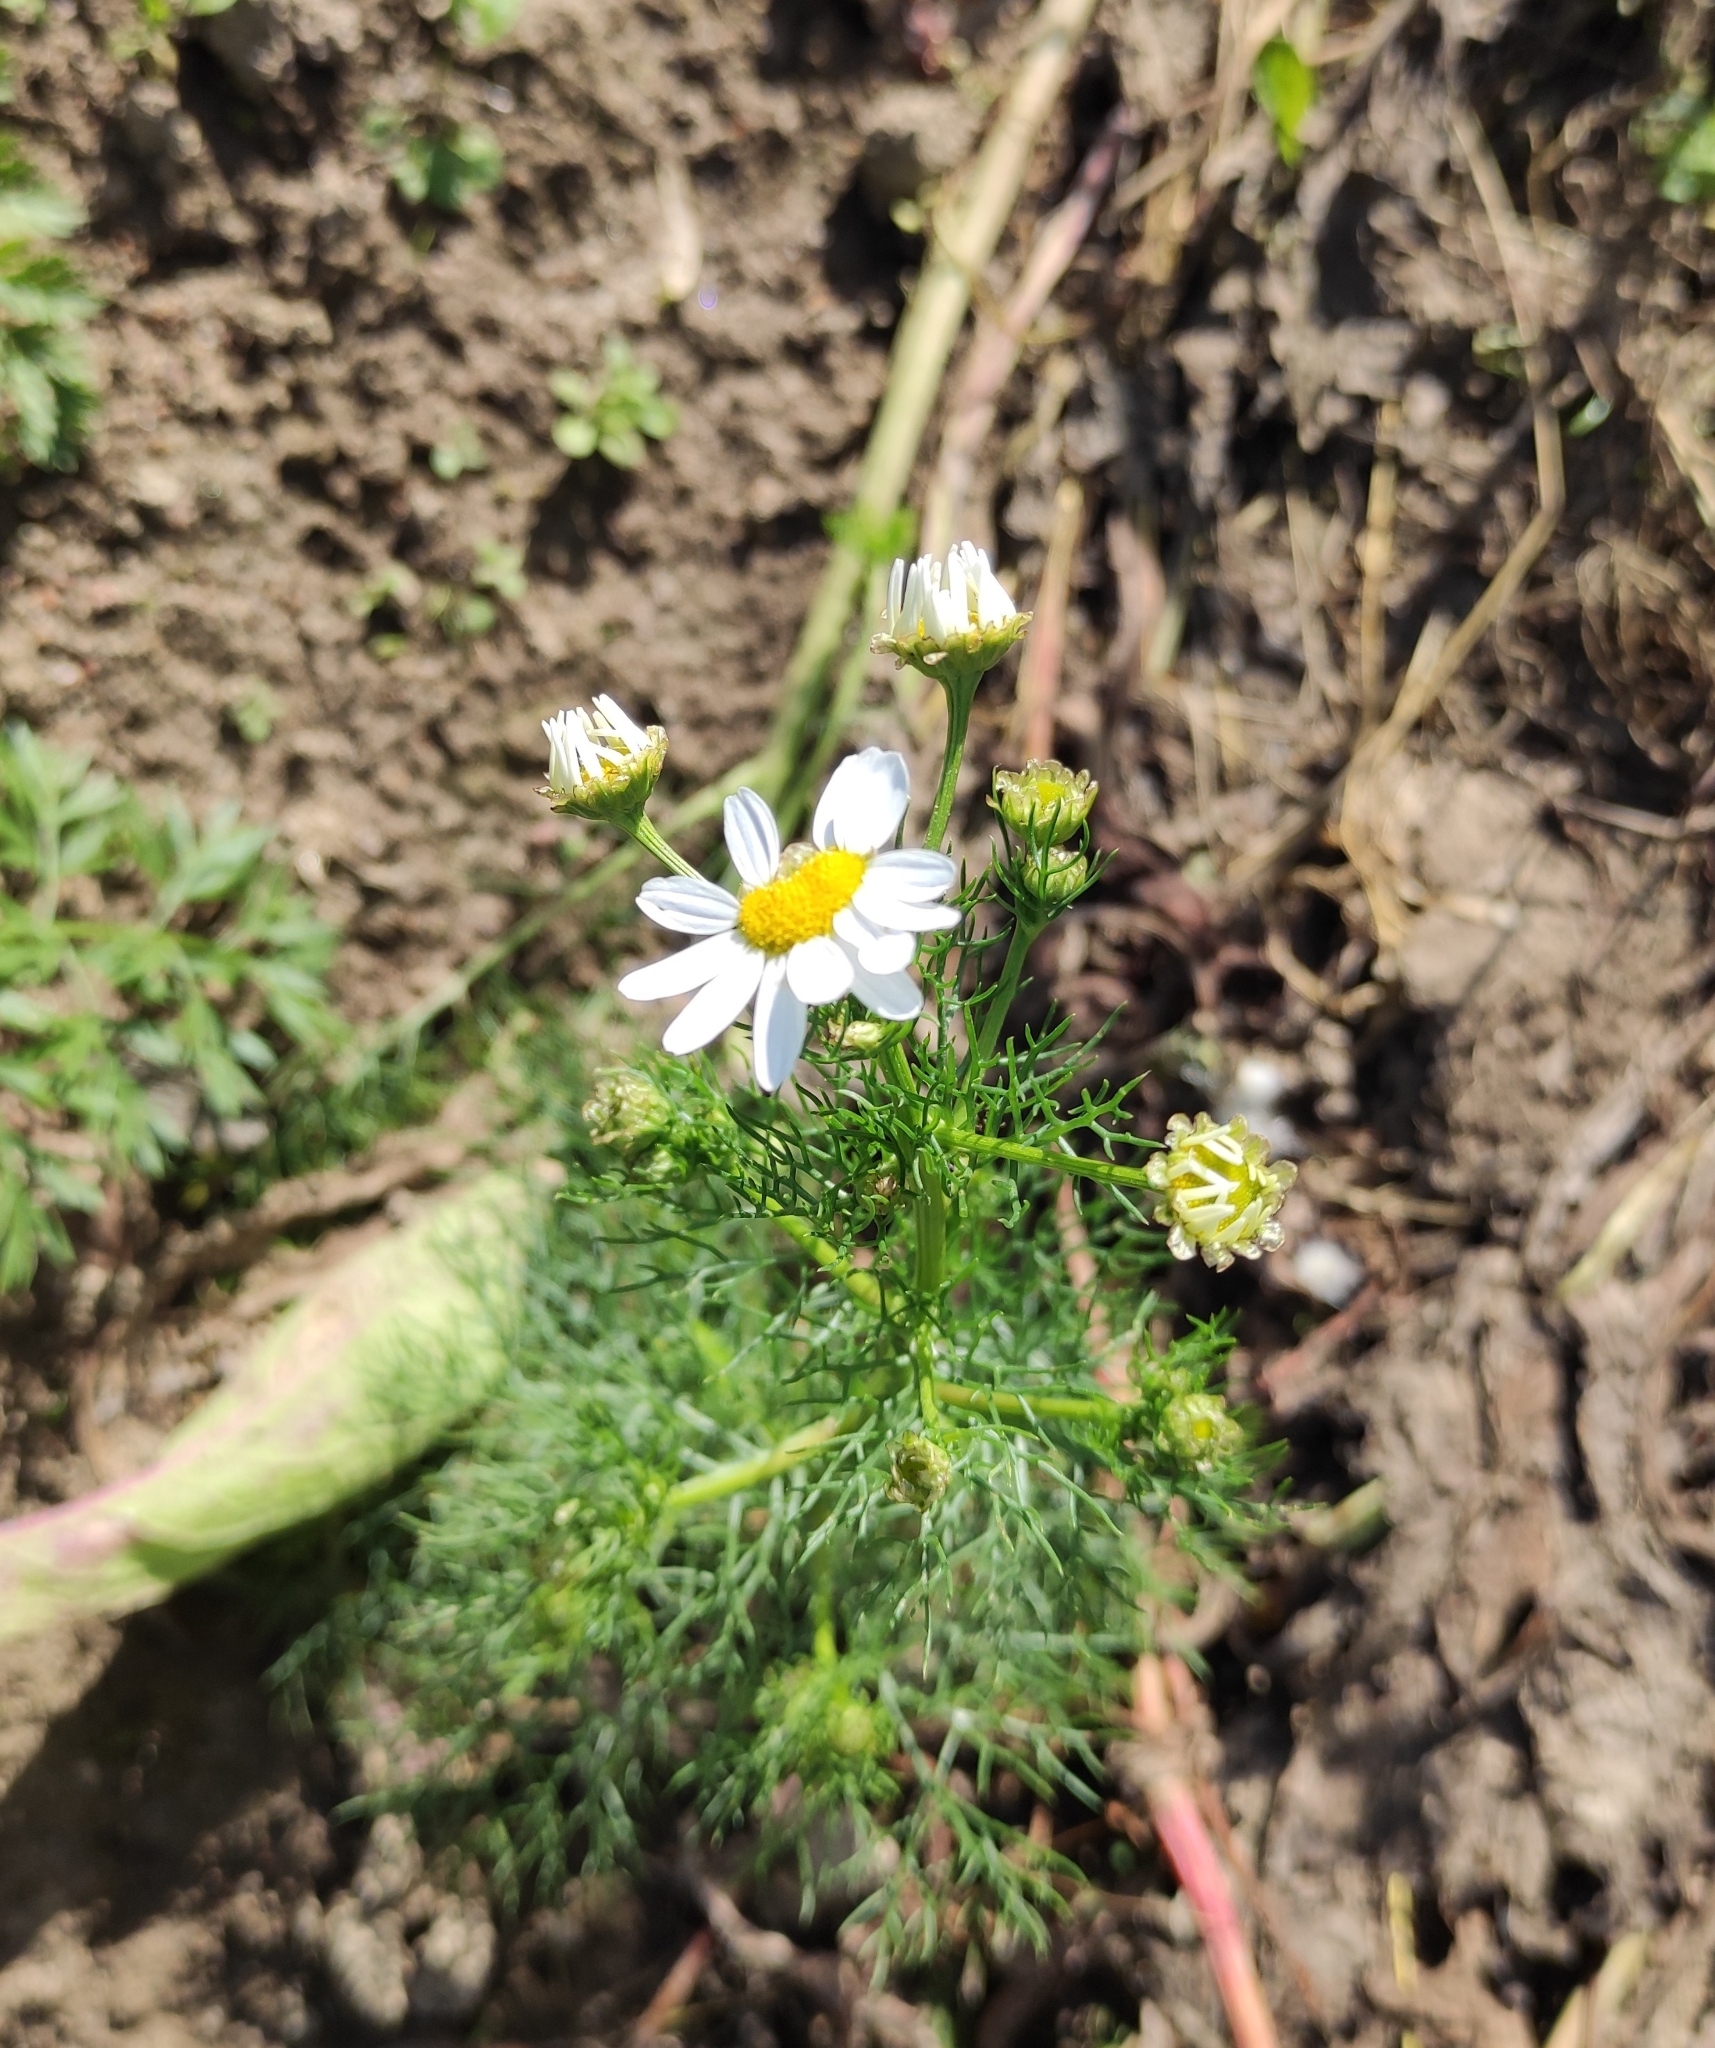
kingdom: Plantae
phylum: Tracheophyta
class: Magnoliopsida
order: Asterales
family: Asteraceae
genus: Tripleurospermum
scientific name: Tripleurospermum inodorum
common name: Scentless mayweed
